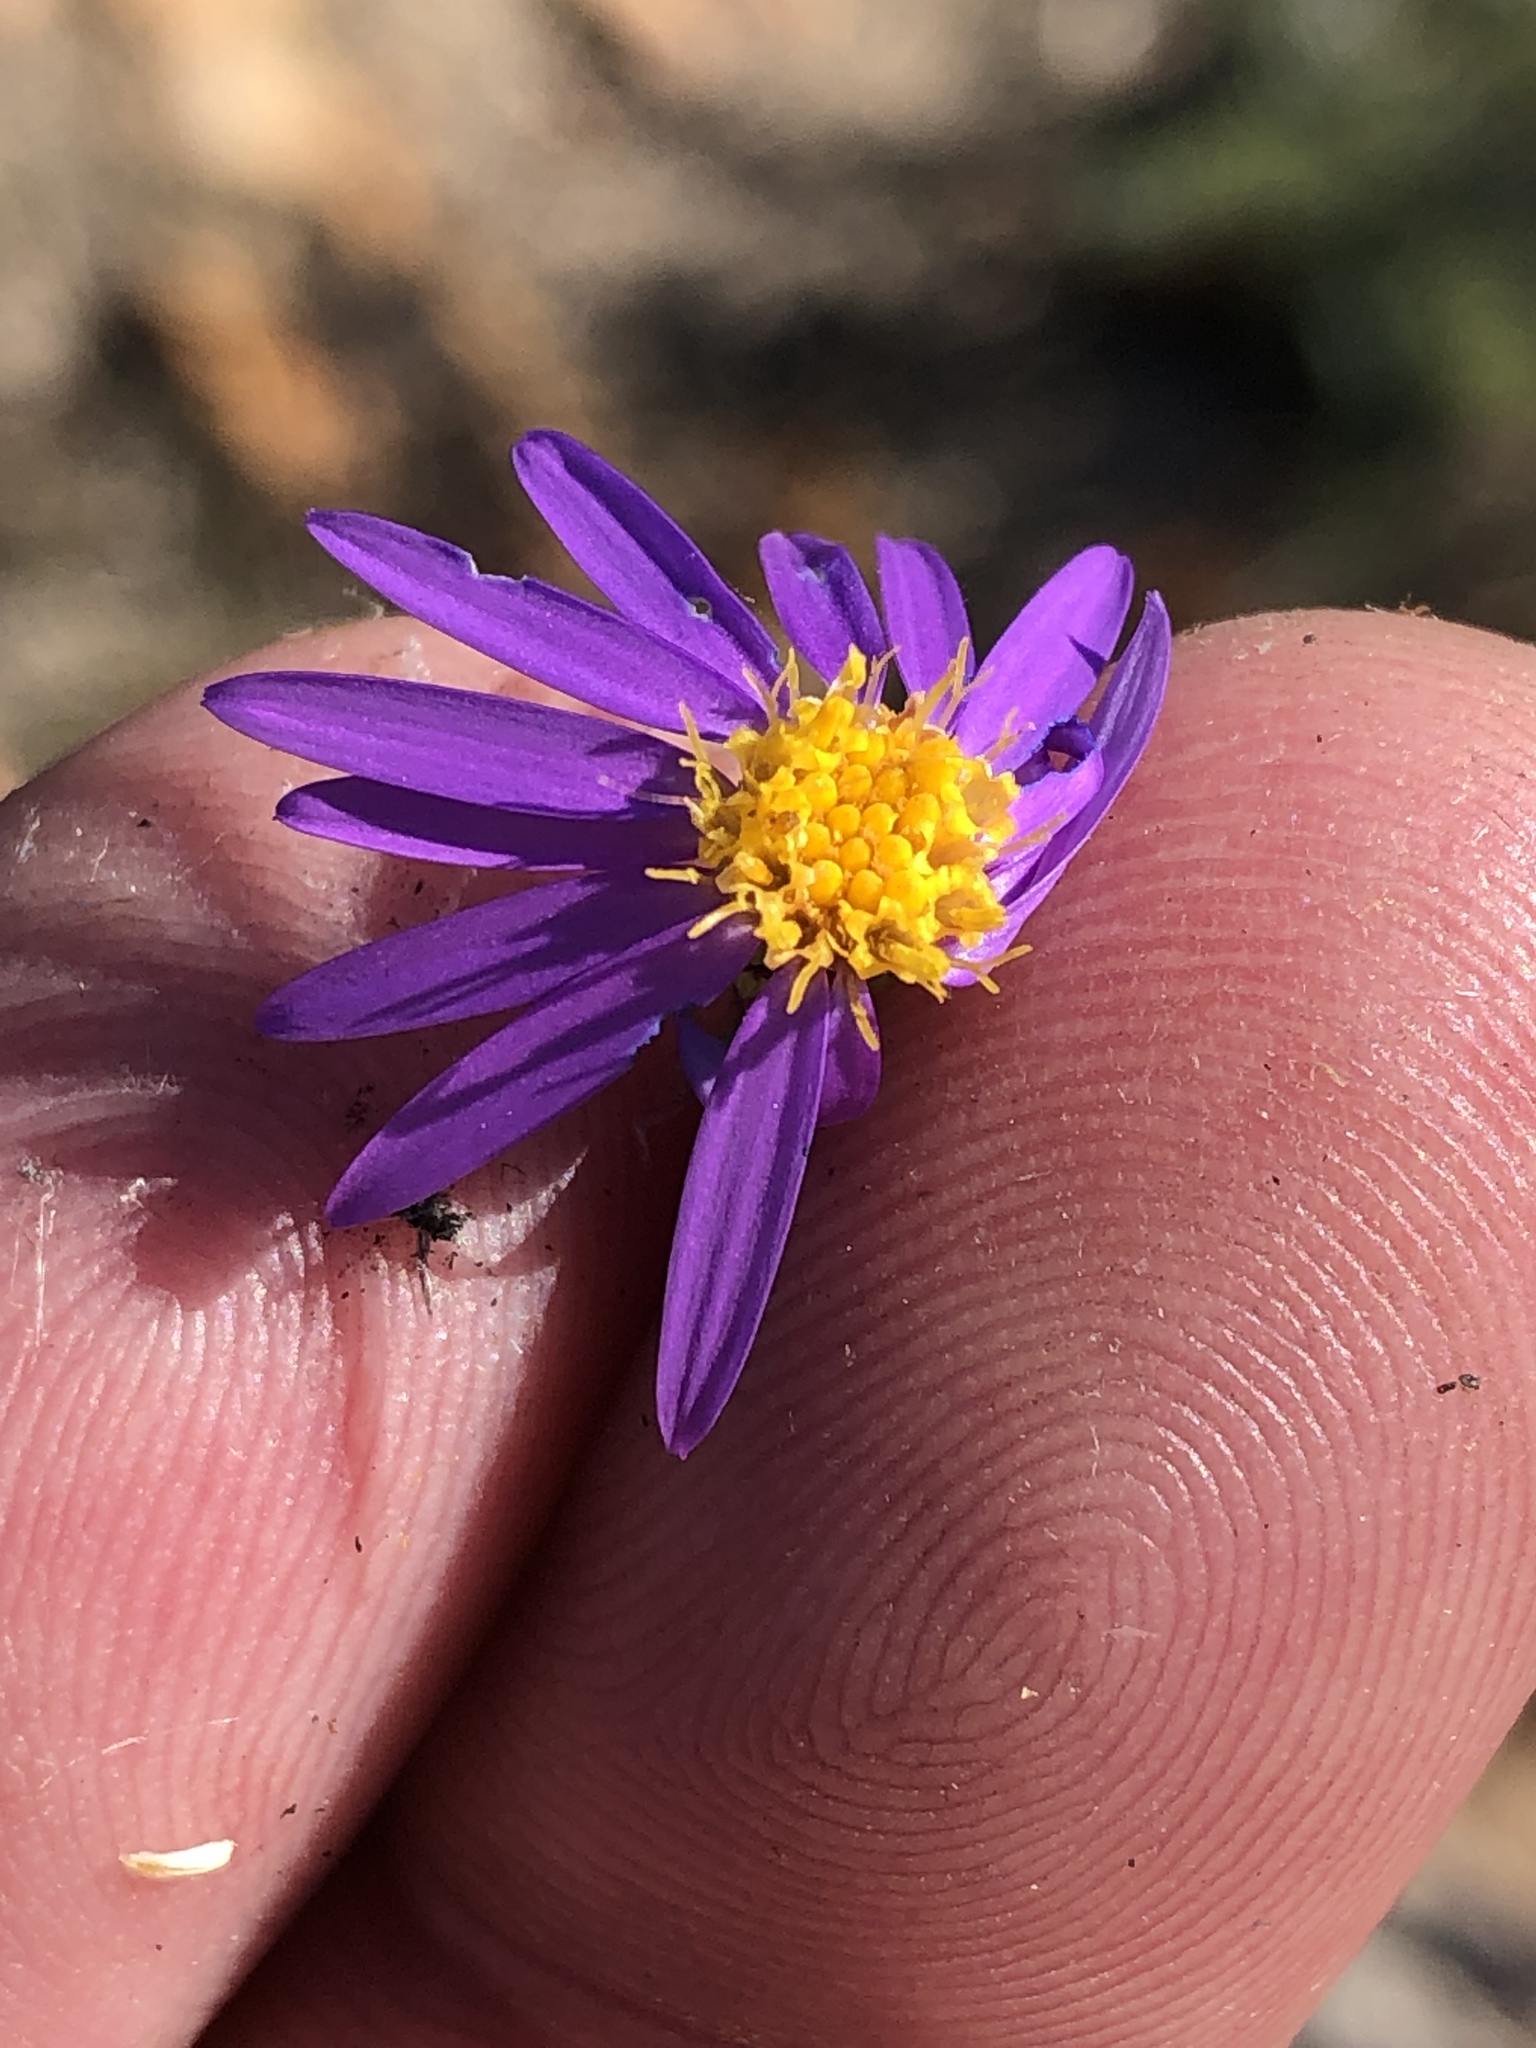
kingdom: Plantae
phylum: Tracheophyta
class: Magnoliopsida
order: Asterales
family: Asteraceae
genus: Felicia
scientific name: Felicia filifolia
